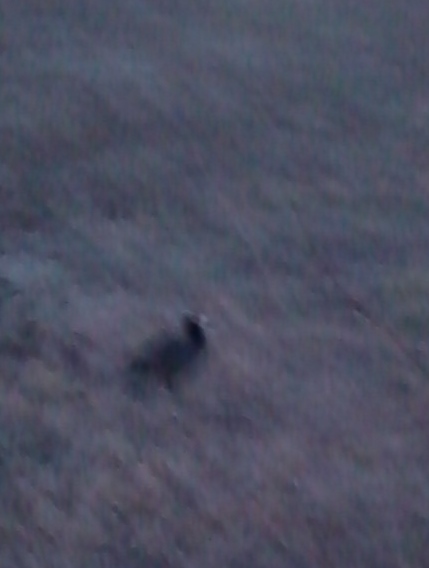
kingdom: Animalia
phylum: Chordata
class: Aves
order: Gruiformes
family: Rallidae
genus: Fulica
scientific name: Fulica americana
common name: American coot
